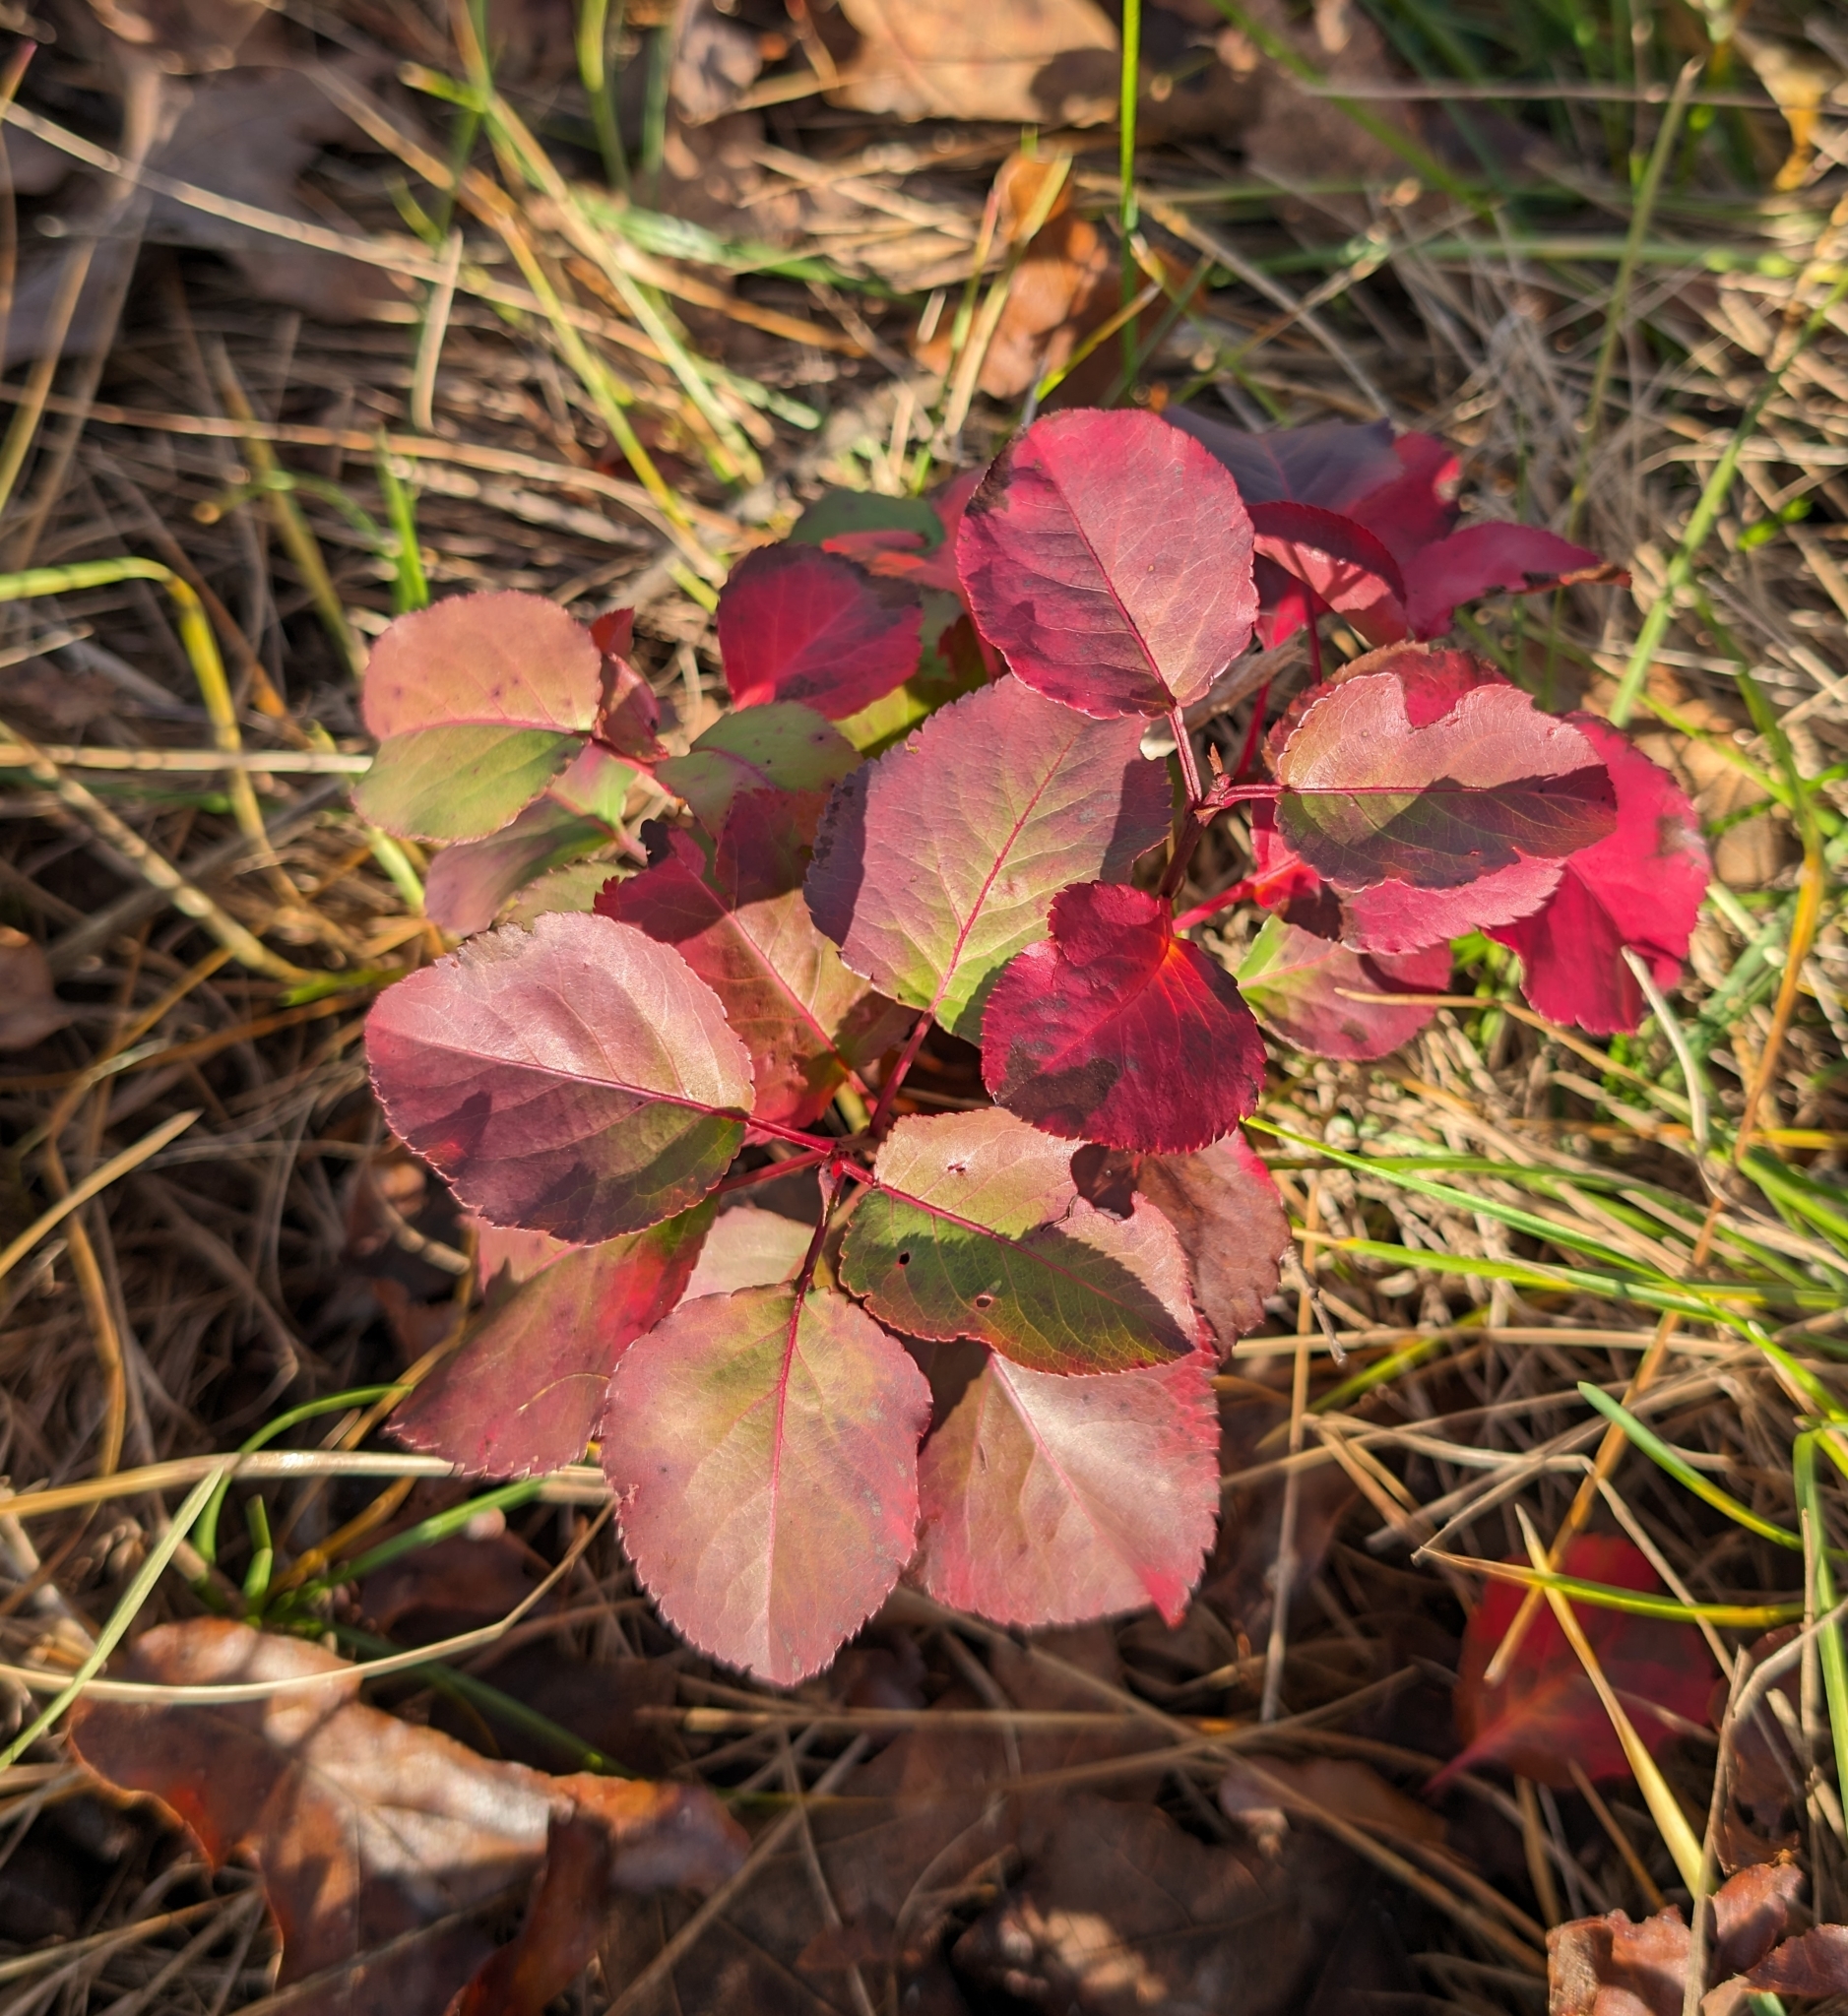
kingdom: Plantae
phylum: Tracheophyta
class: Magnoliopsida
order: Rosales
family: Rosaceae
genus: Pyrus
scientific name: Pyrus calleryana
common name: Callery pear
